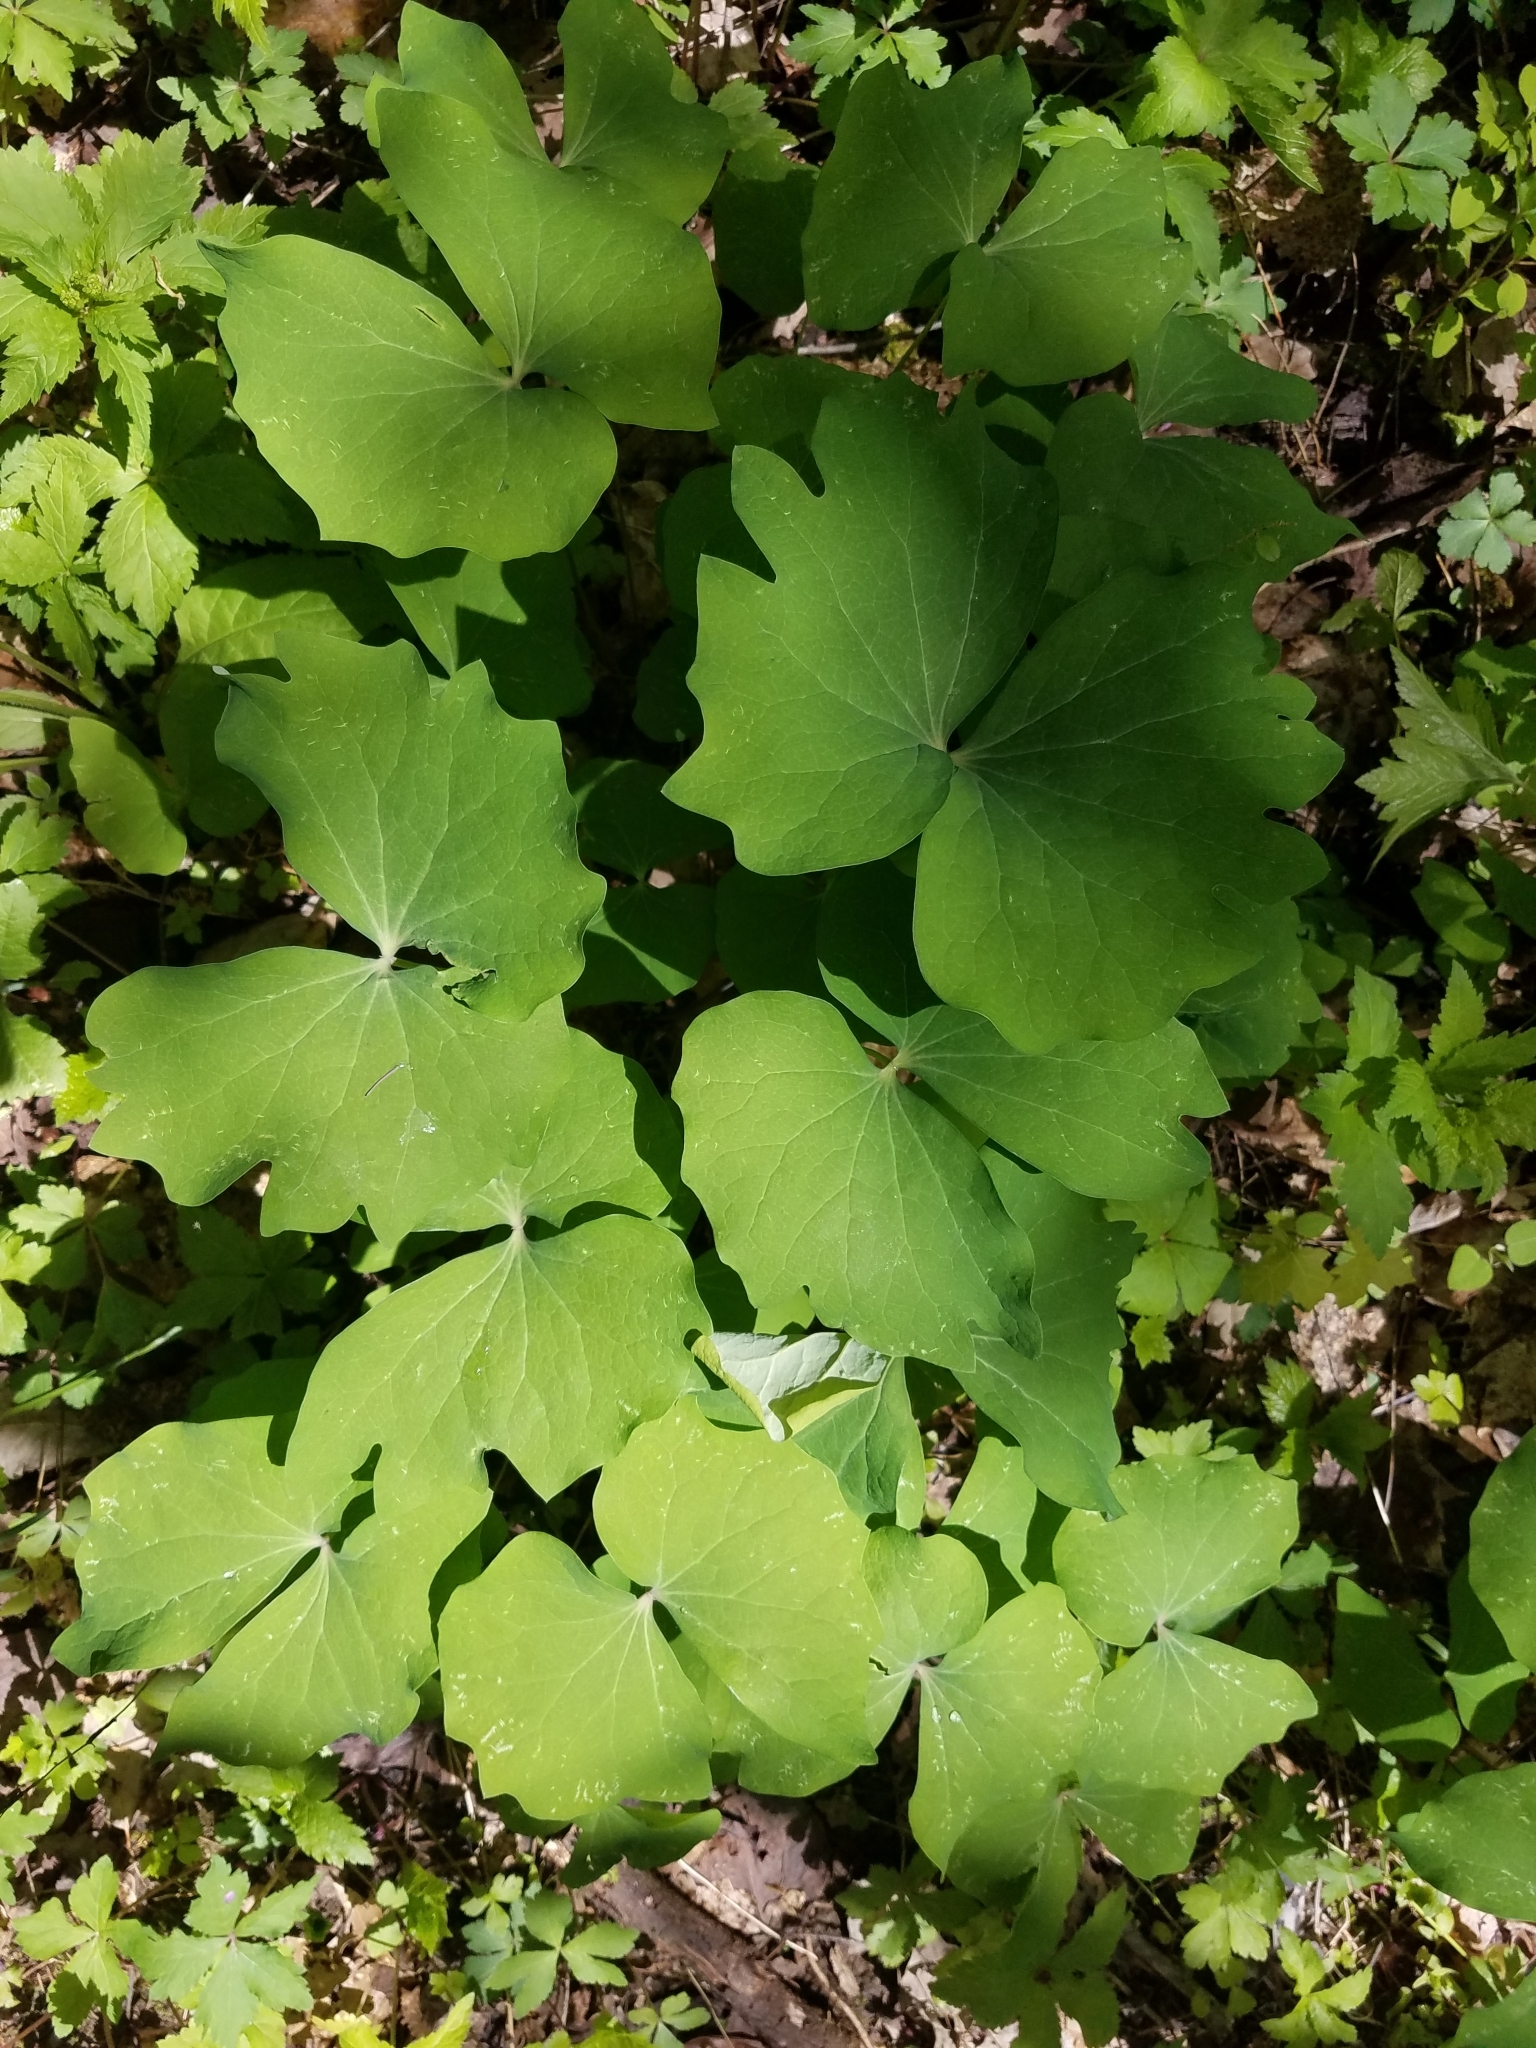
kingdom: Plantae
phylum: Tracheophyta
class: Magnoliopsida
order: Ranunculales
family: Berberidaceae
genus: Jeffersonia
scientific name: Jeffersonia diphylla
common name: Rheumatism-root
